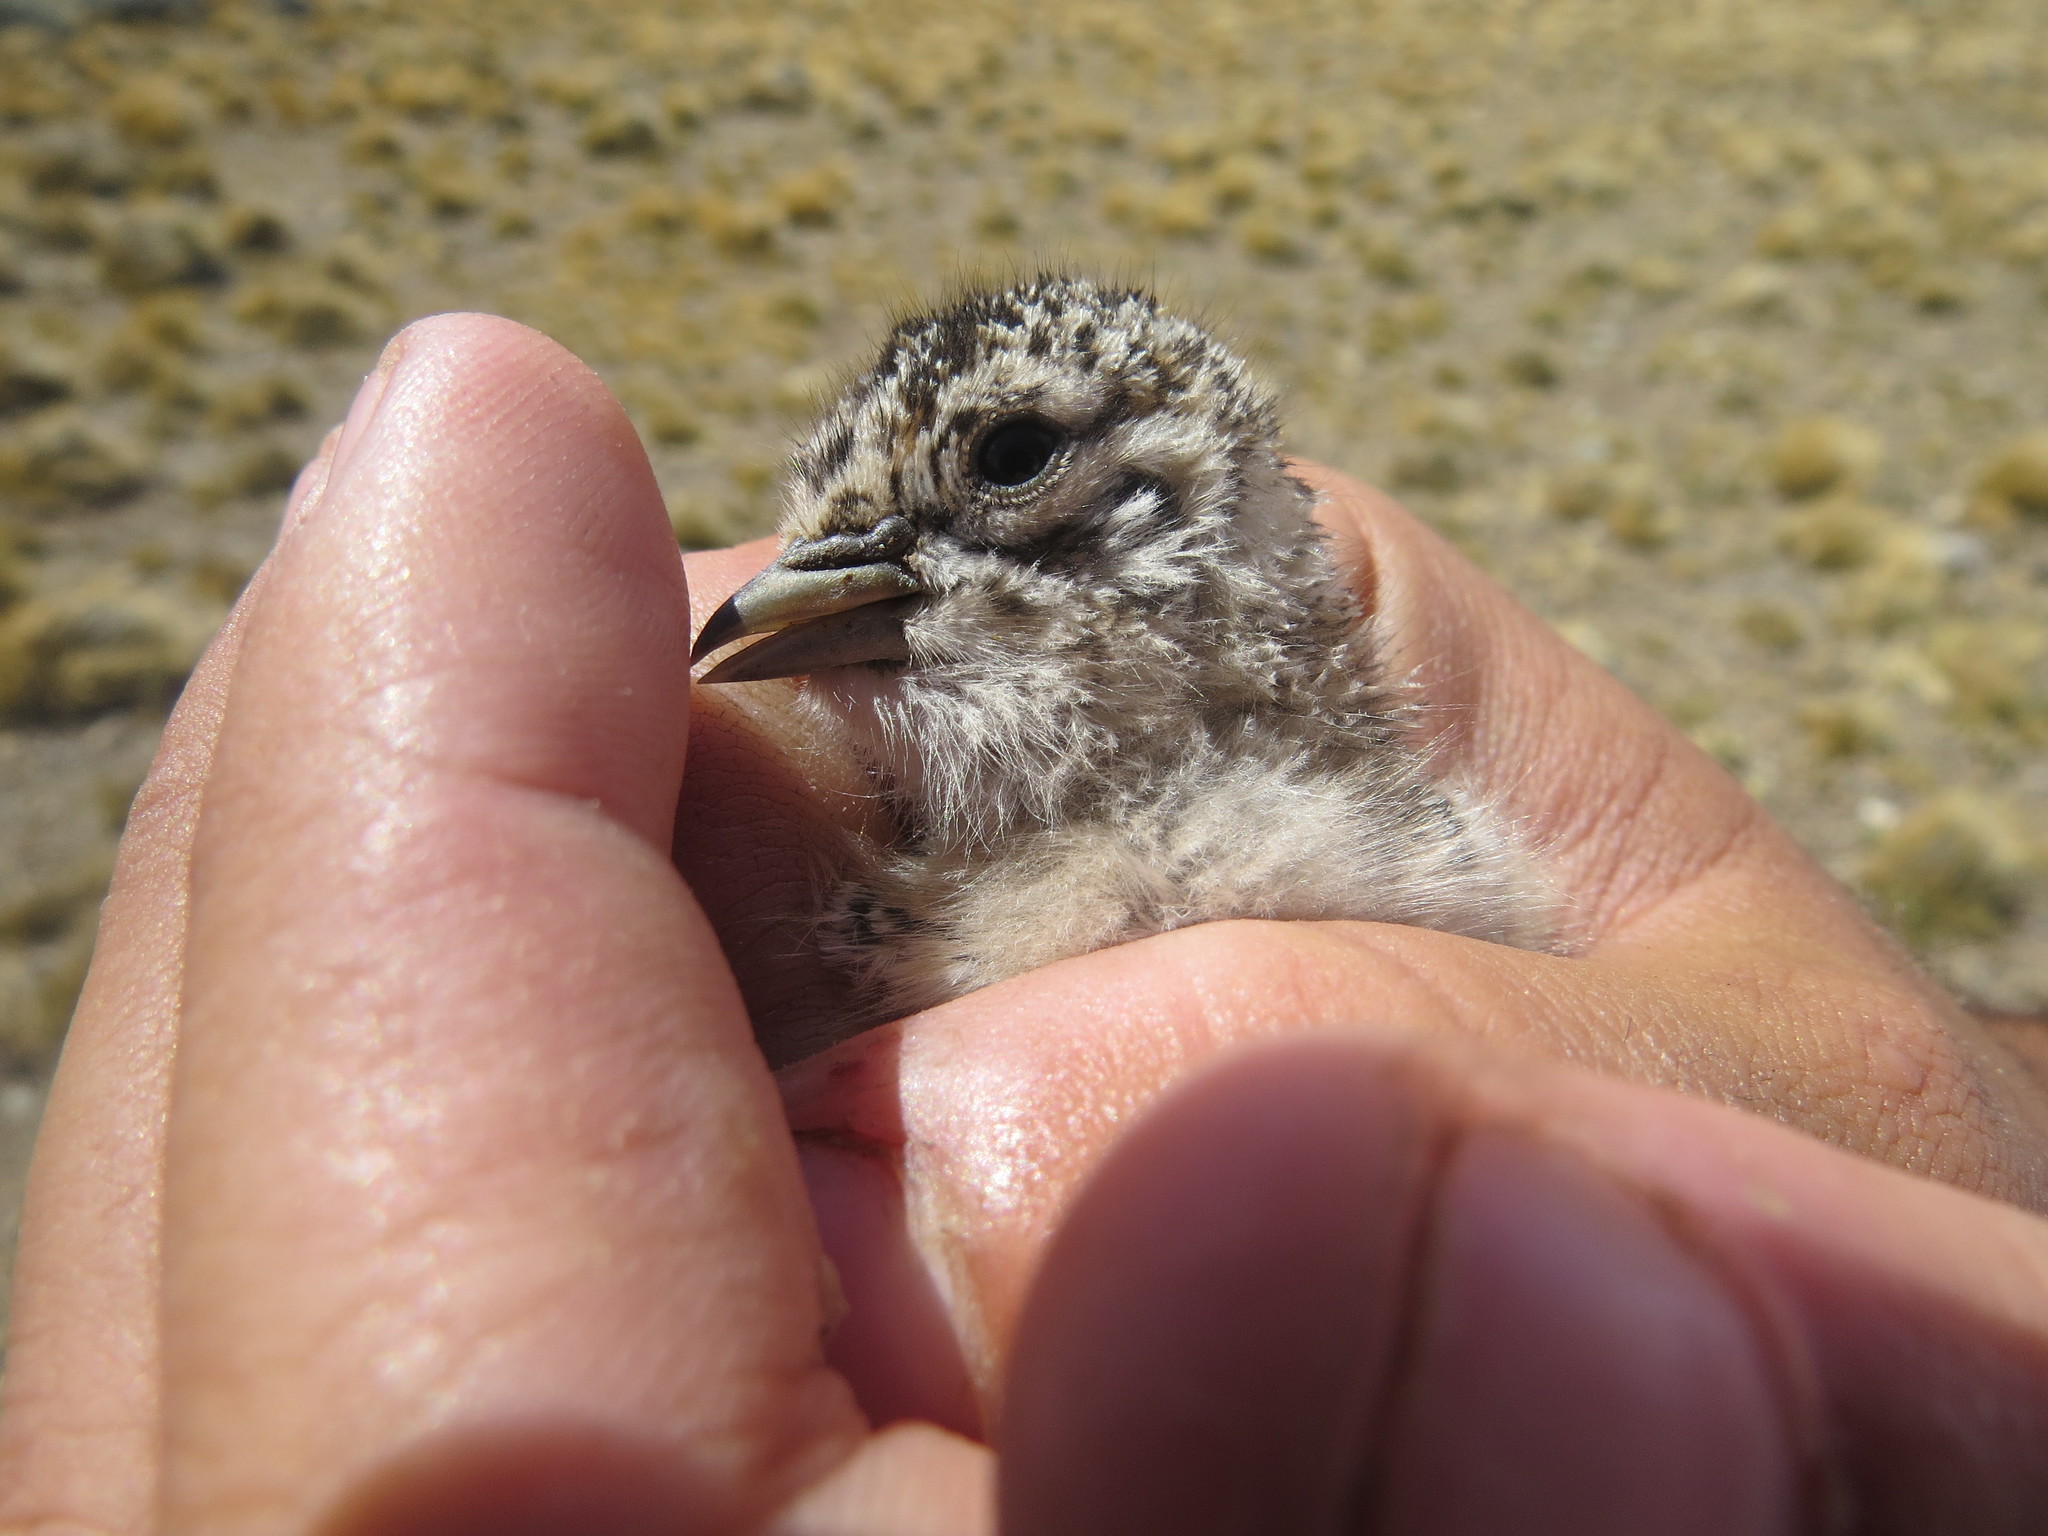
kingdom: Animalia
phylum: Chordata
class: Aves
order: Charadriiformes
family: Thinocoridae
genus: Thinocorus
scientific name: Thinocorus rumicivorus
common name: Least seedsnipe
